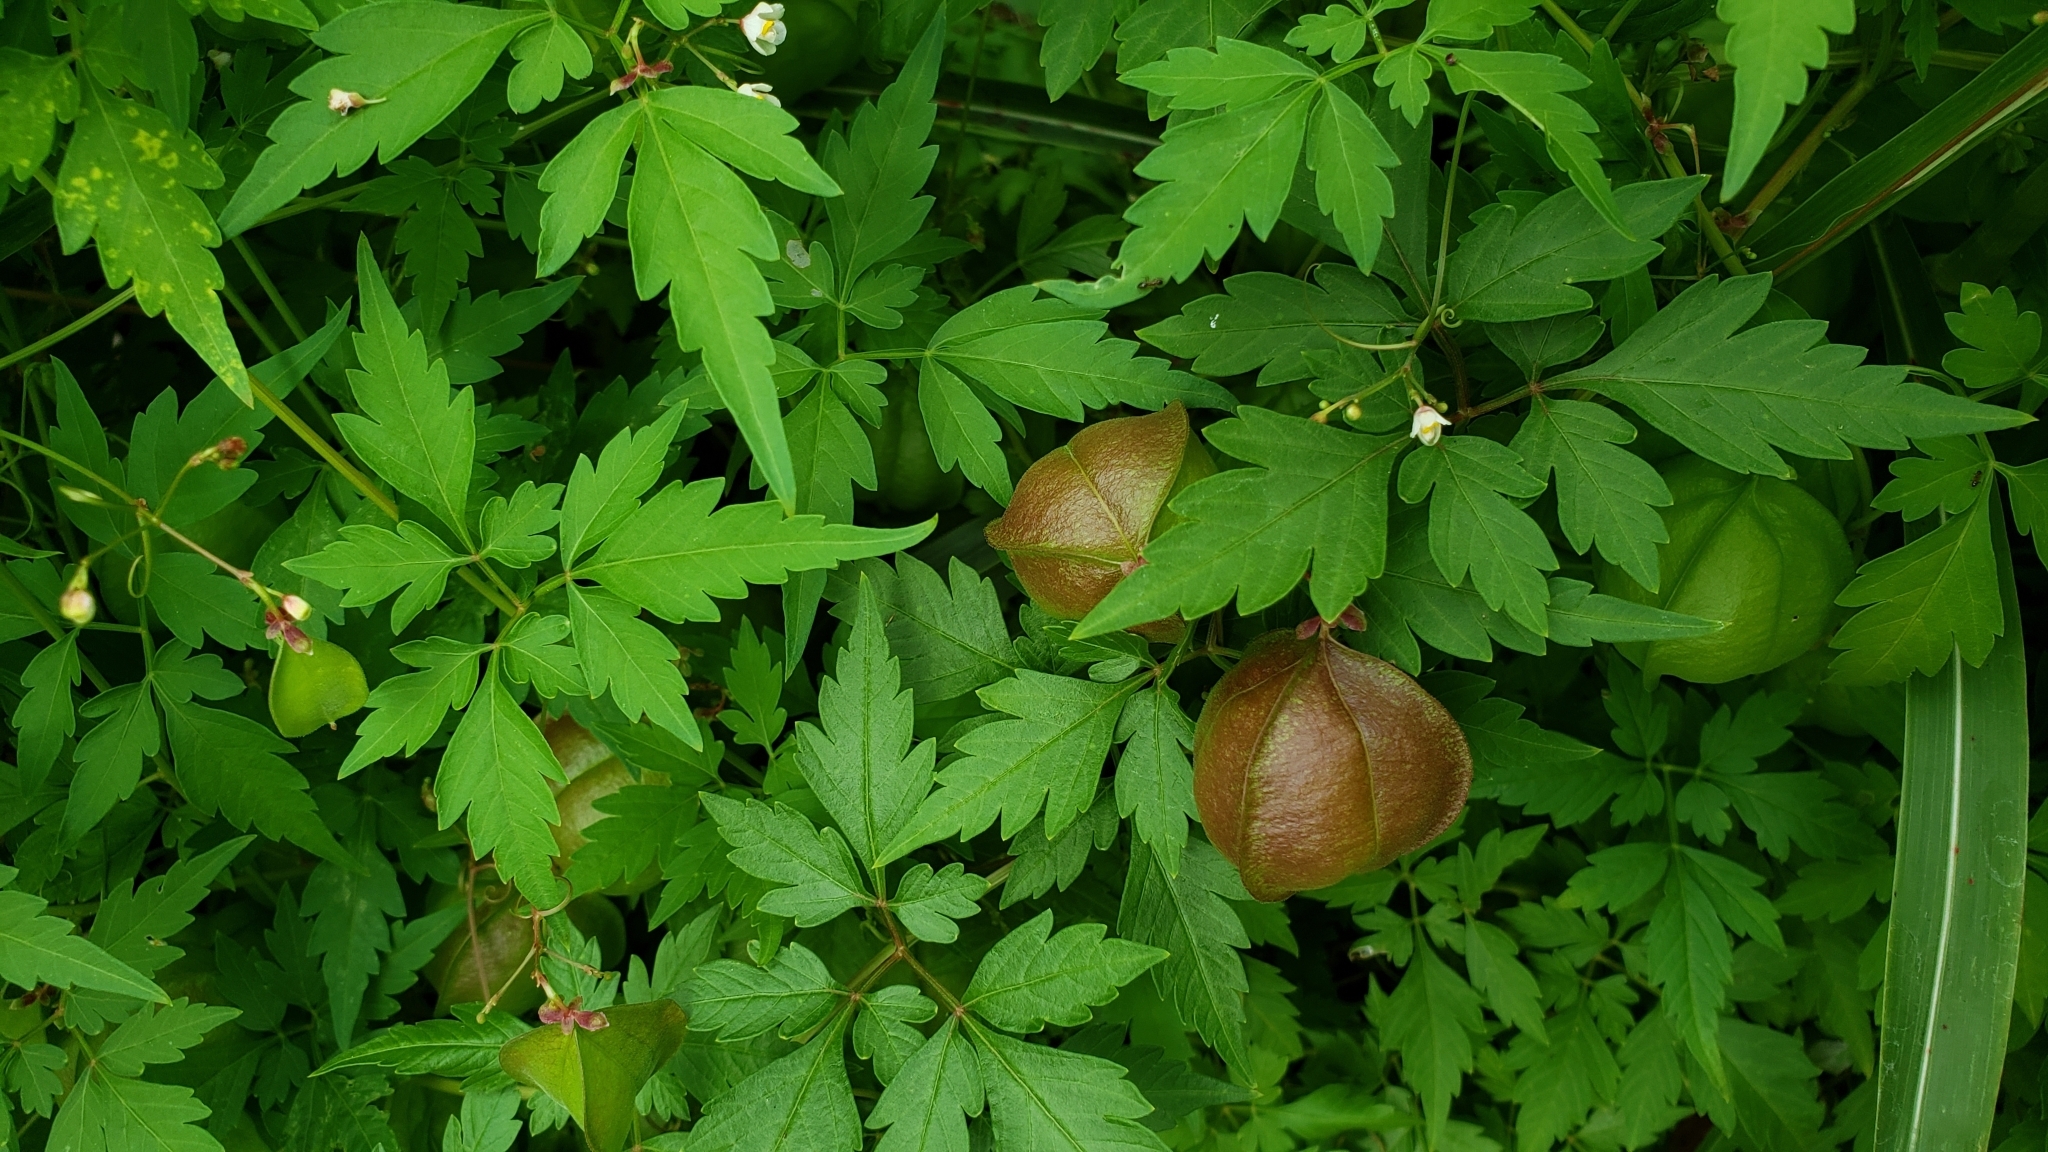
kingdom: Plantae
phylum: Tracheophyta
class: Magnoliopsida
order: Sapindales
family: Sapindaceae
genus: Cardiospermum
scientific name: Cardiospermum halicacabum
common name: Balloon vine
